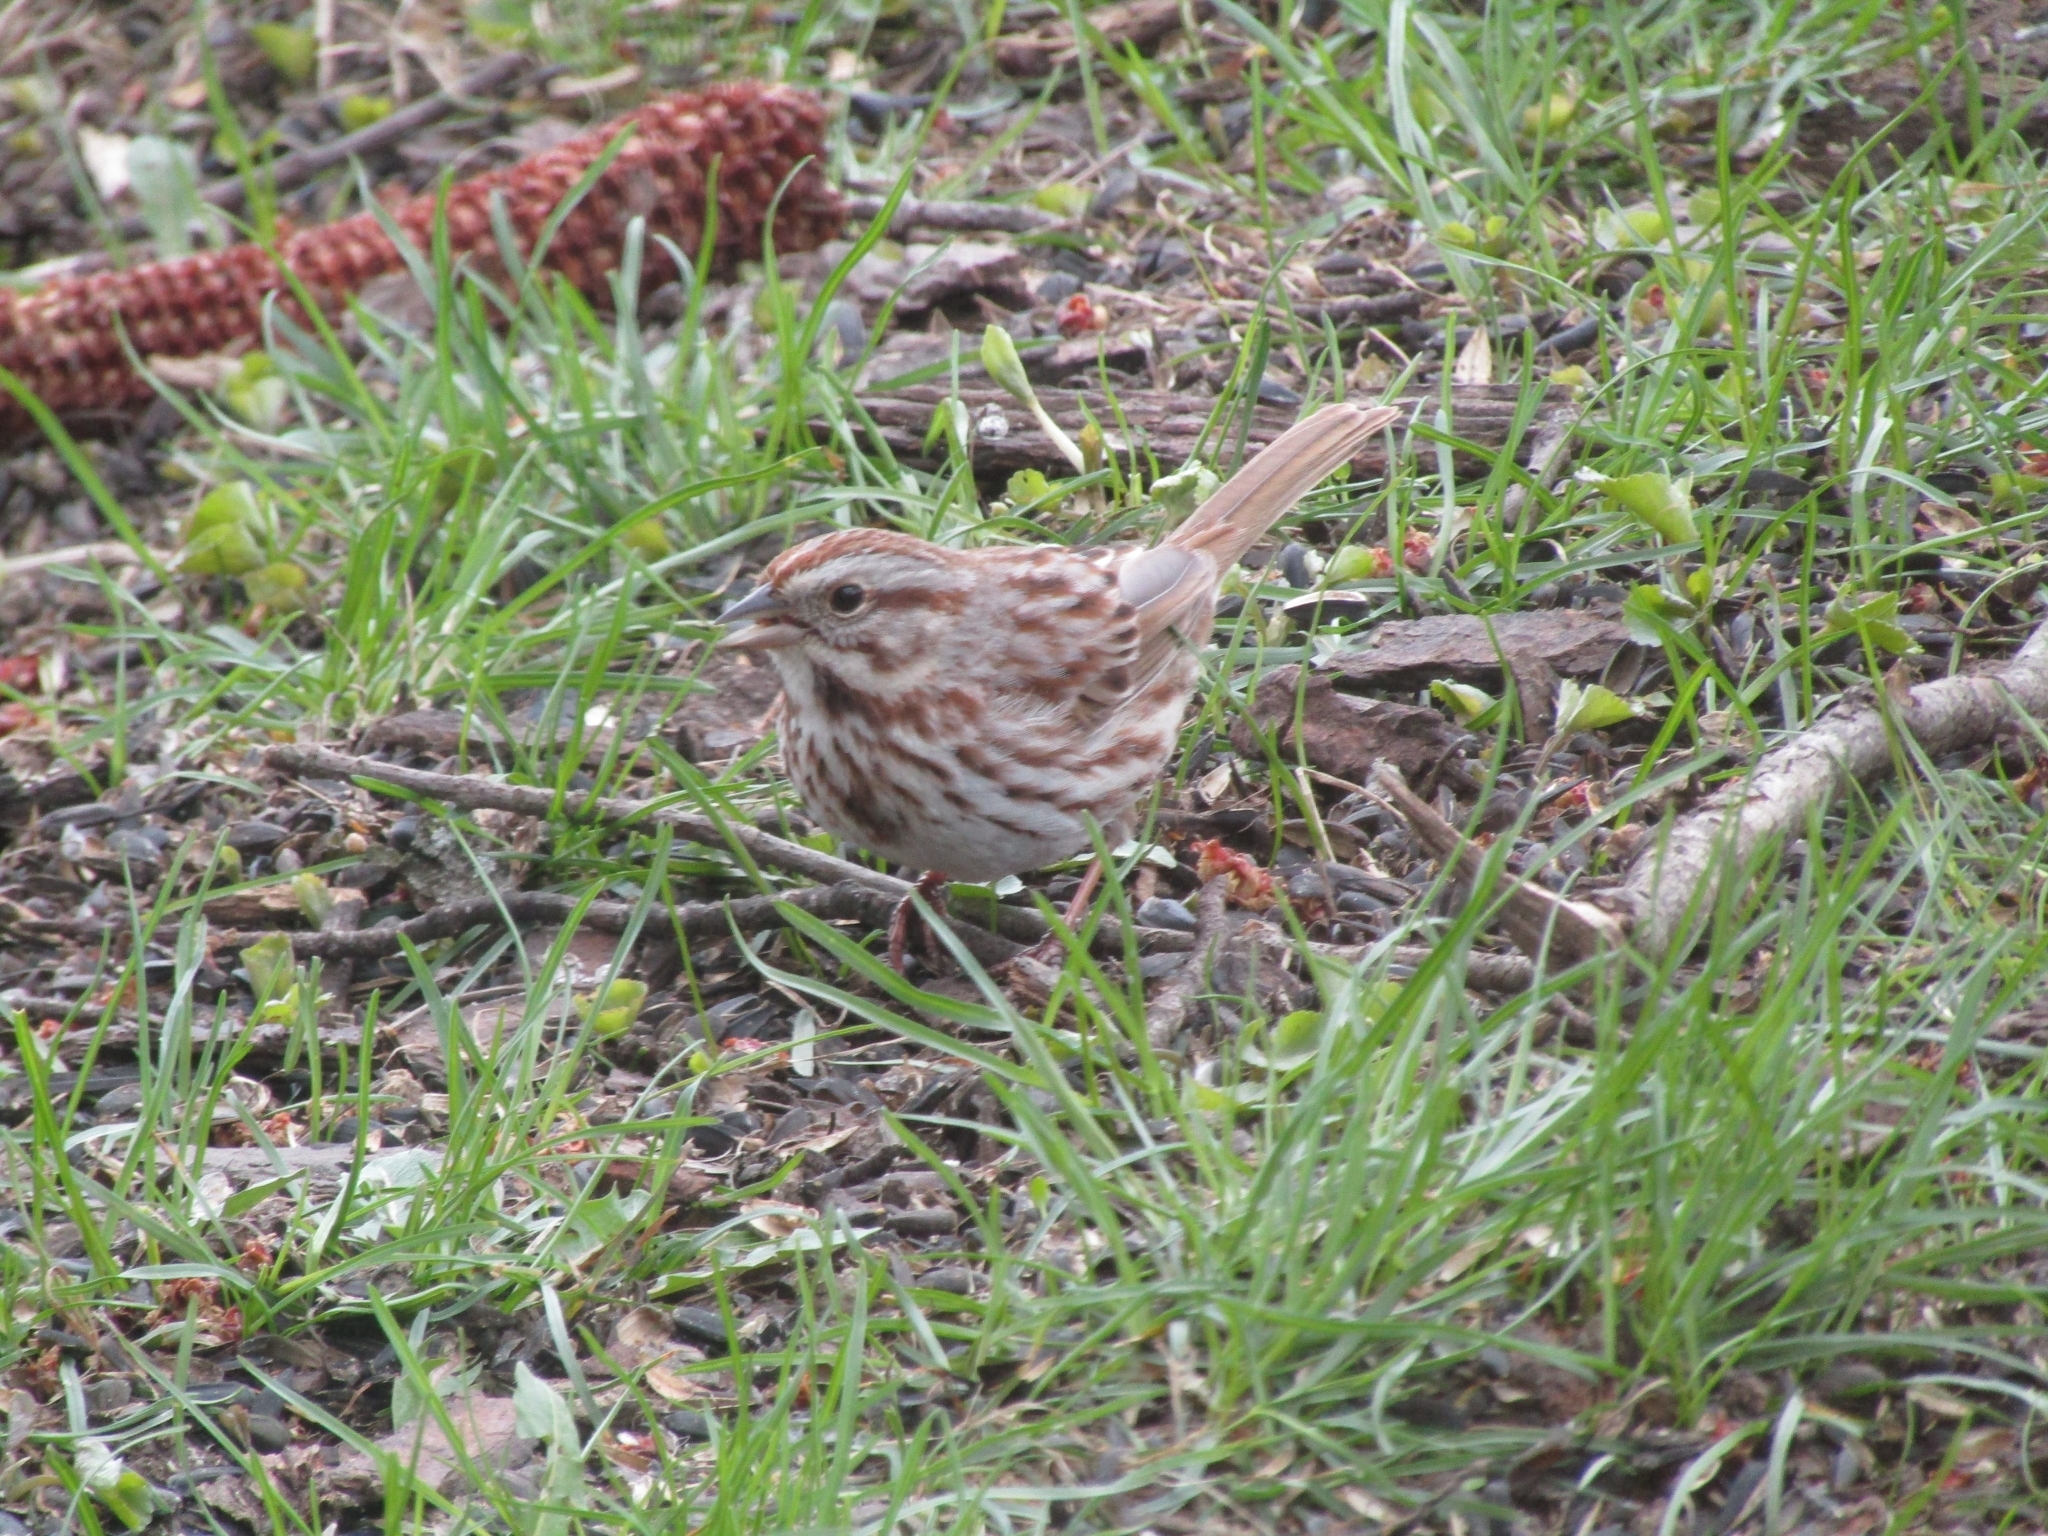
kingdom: Animalia
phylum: Chordata
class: Aves
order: Passeriformes
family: Passerellidae
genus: Melospiza
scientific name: Melospiza melodia
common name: Song sparrow
